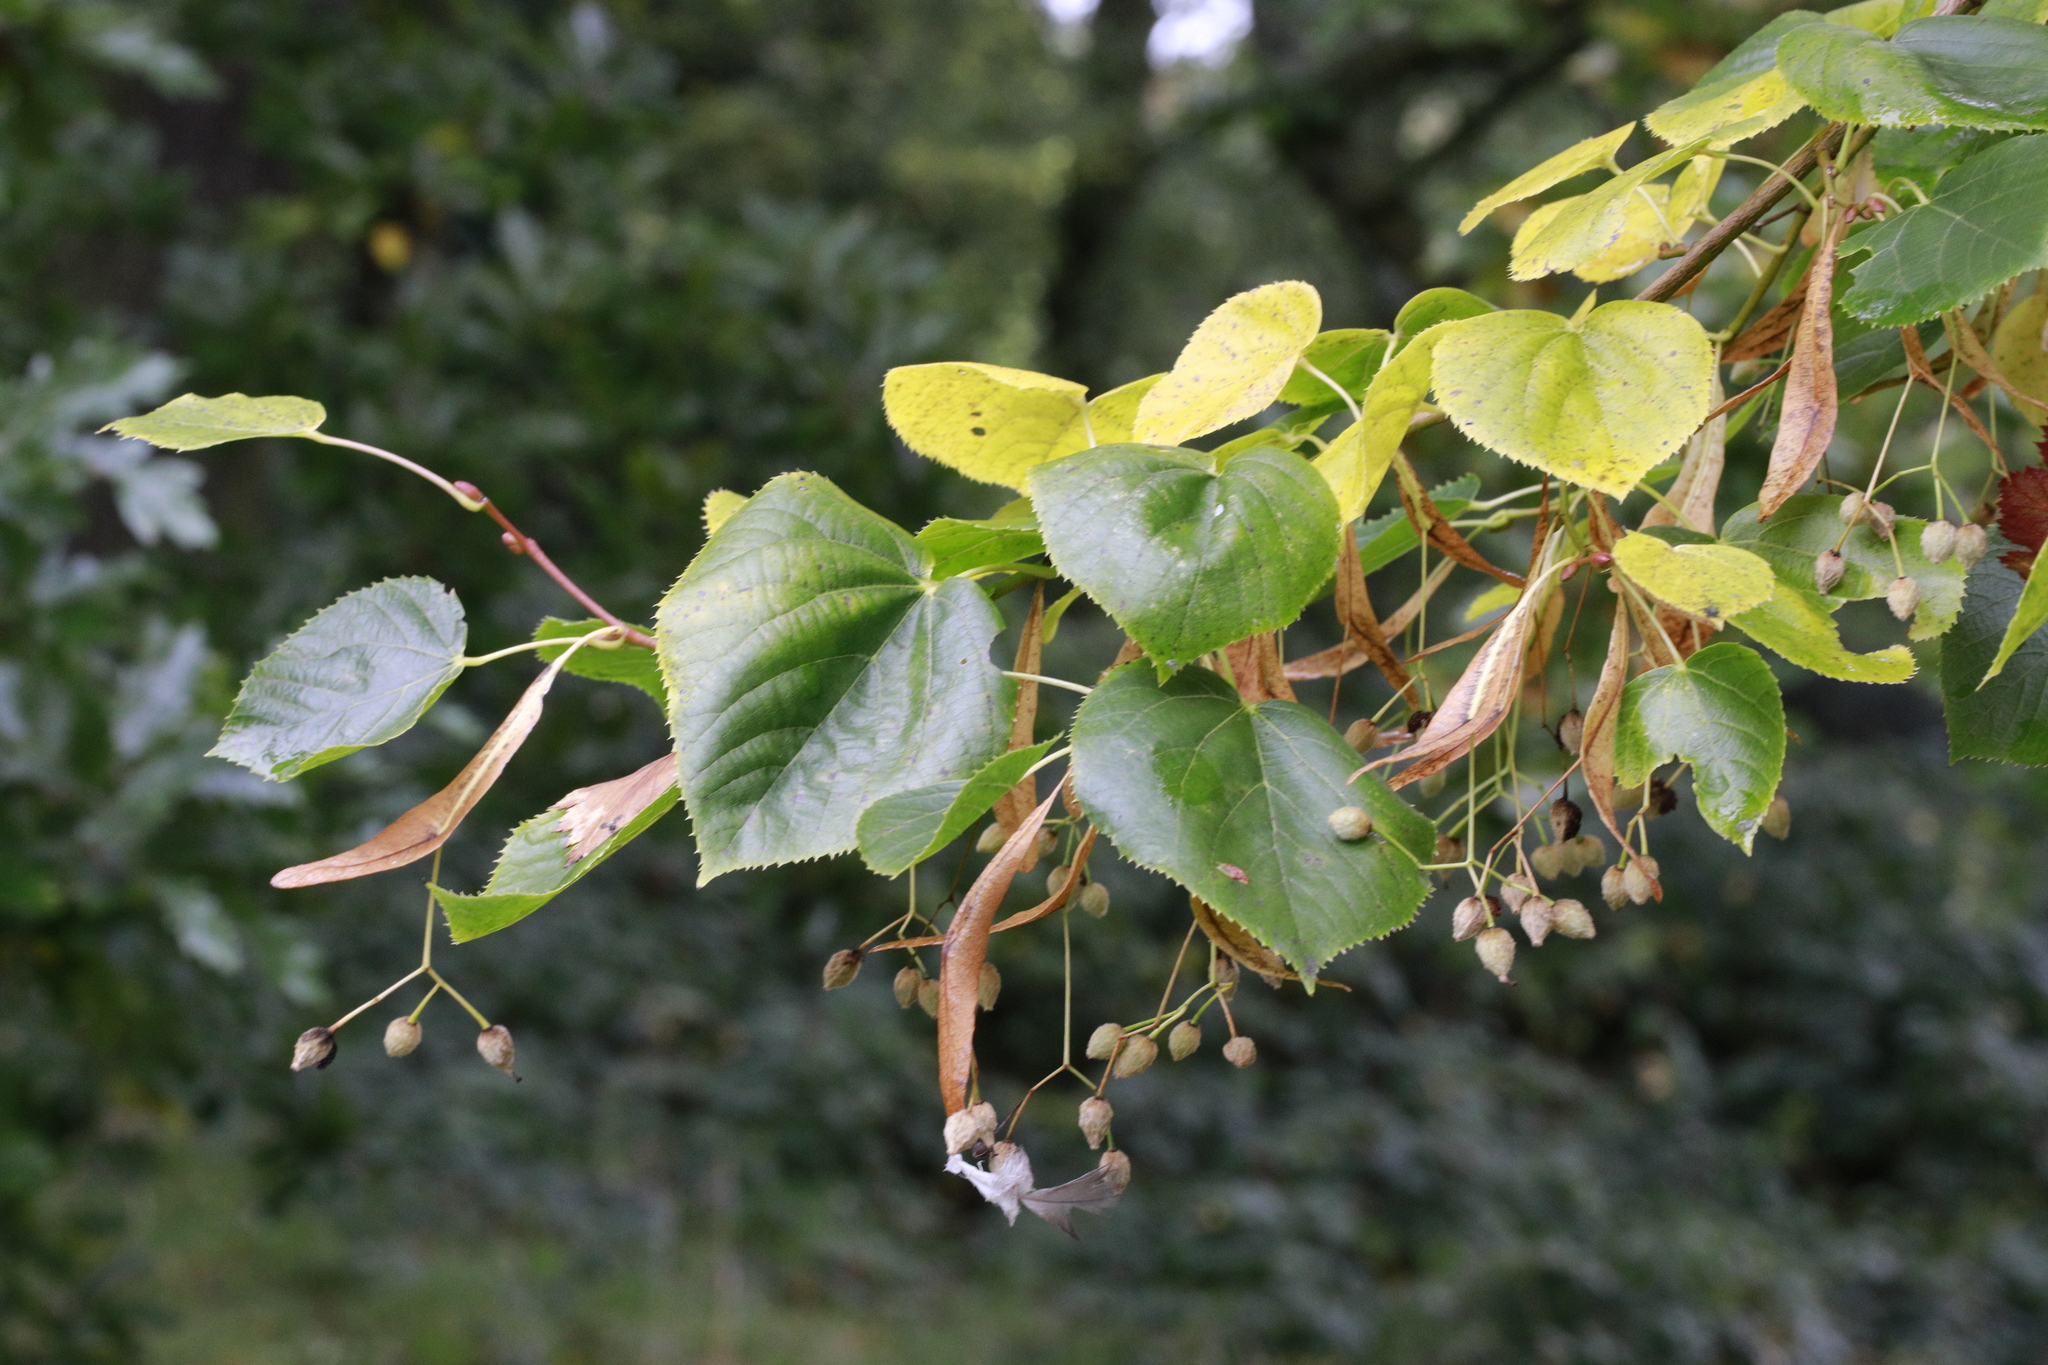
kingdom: Plantae
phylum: Tracheophyta
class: Magnoliopsida
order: Malvales
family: Malvaceae
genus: Tilia
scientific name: Tilia europaea
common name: European linden
